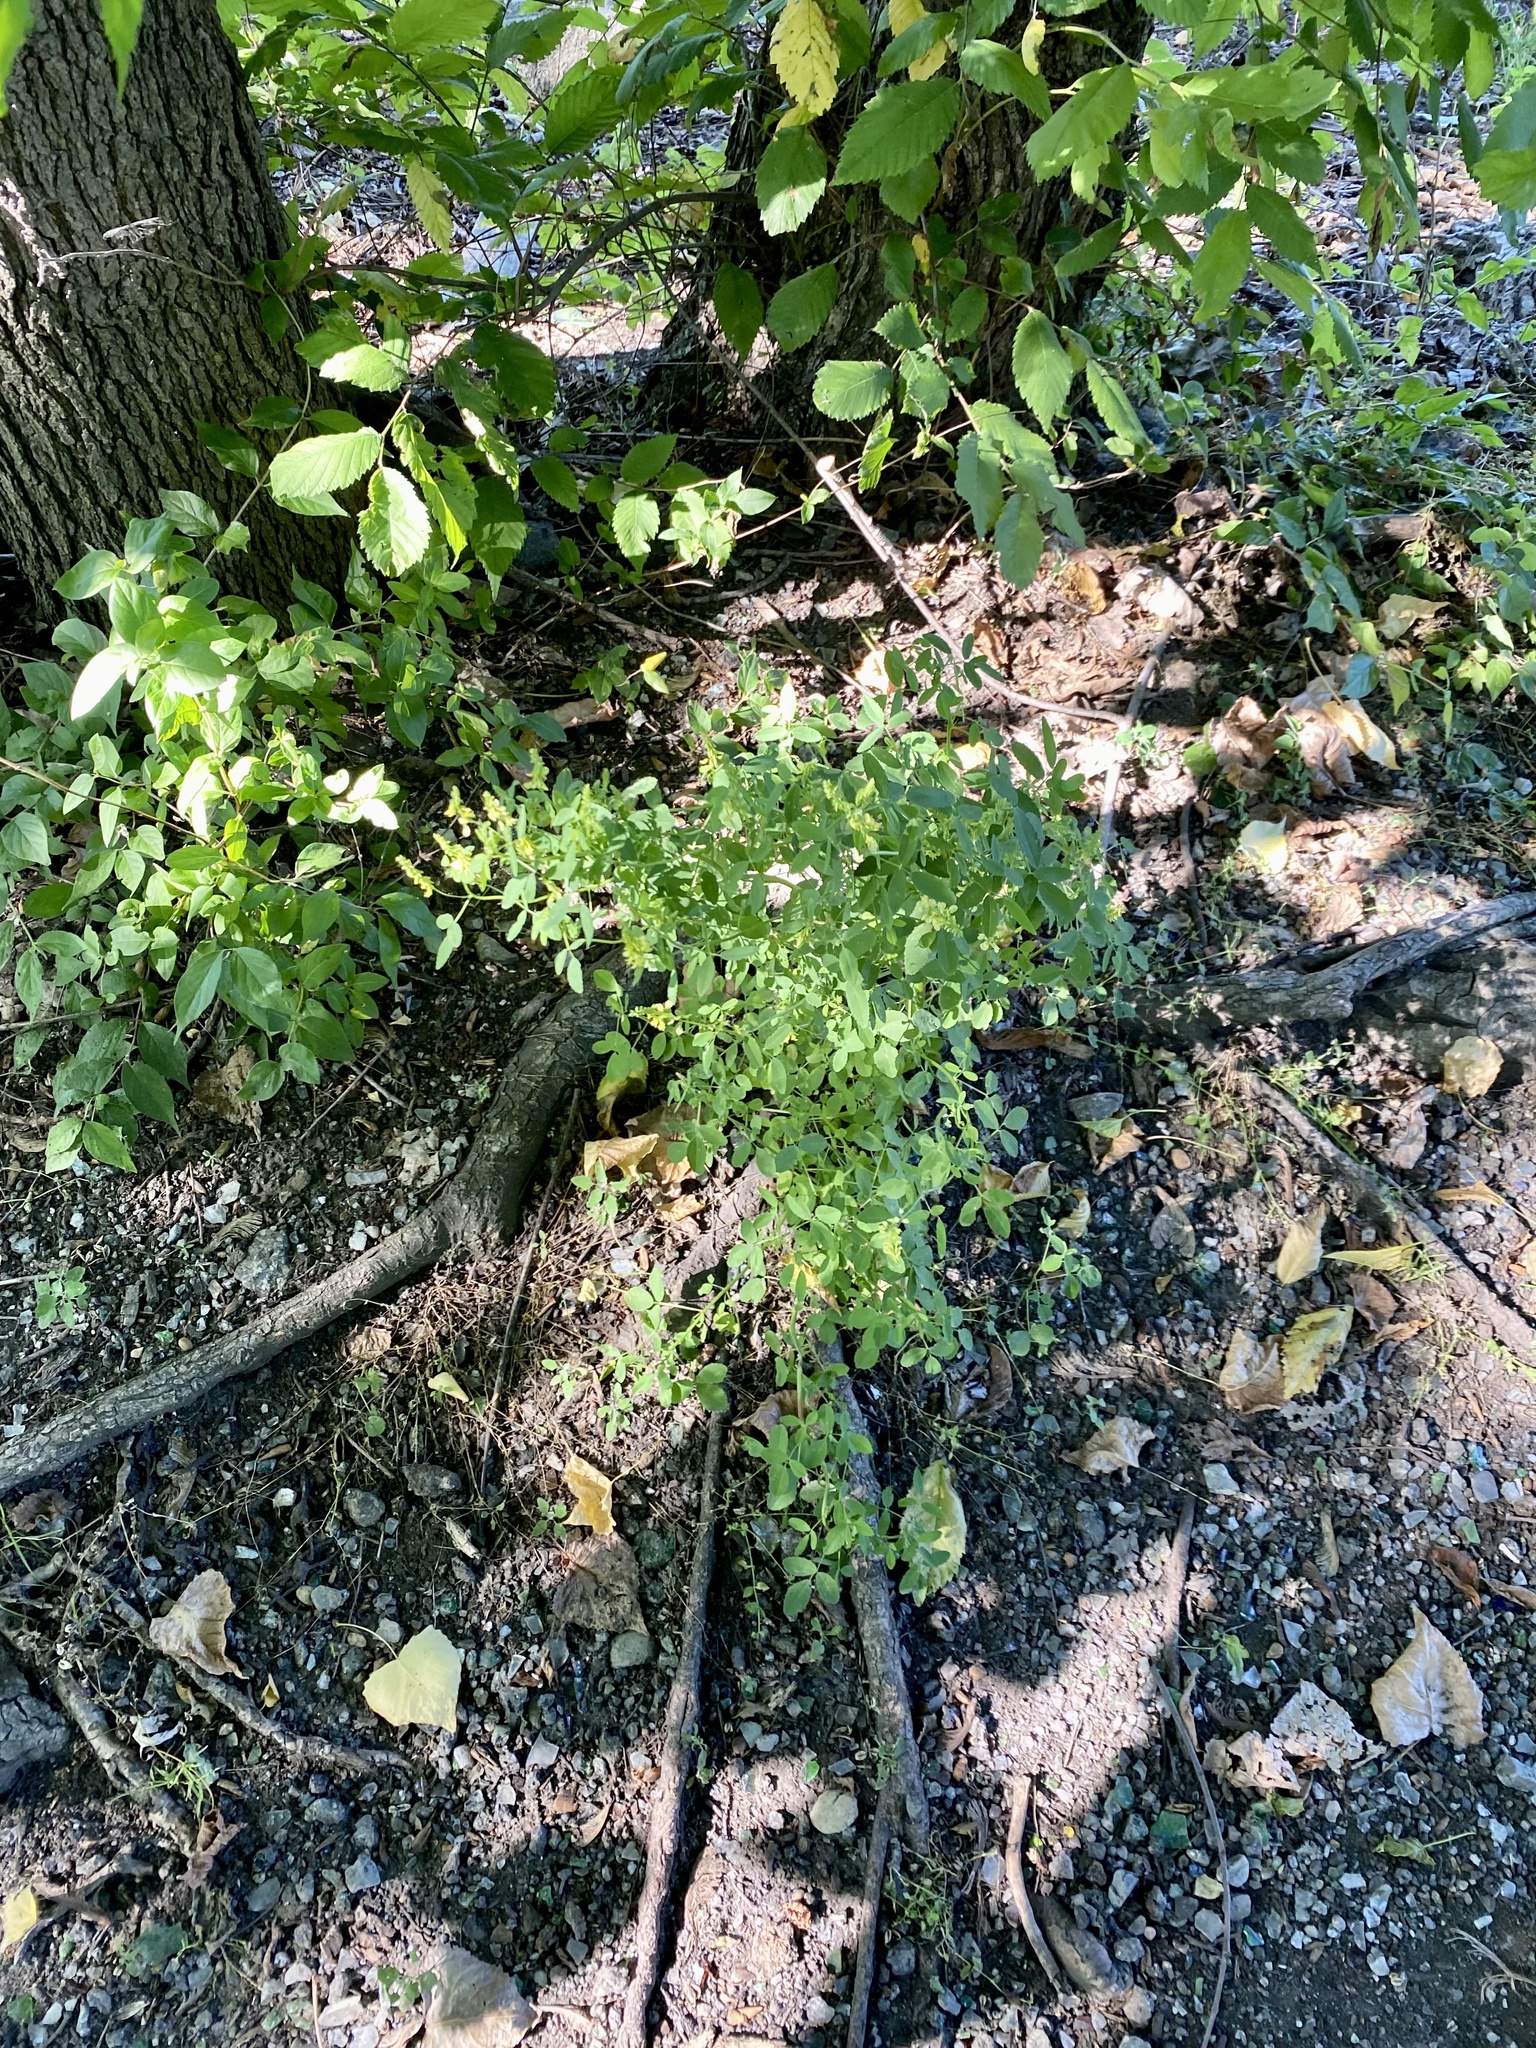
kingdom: Plantae
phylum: Tracheophyta
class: Magnoliopsida
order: Fabales
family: Fabaceae
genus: Melilotus
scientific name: Melilotus officinalis
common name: Sweetclover
